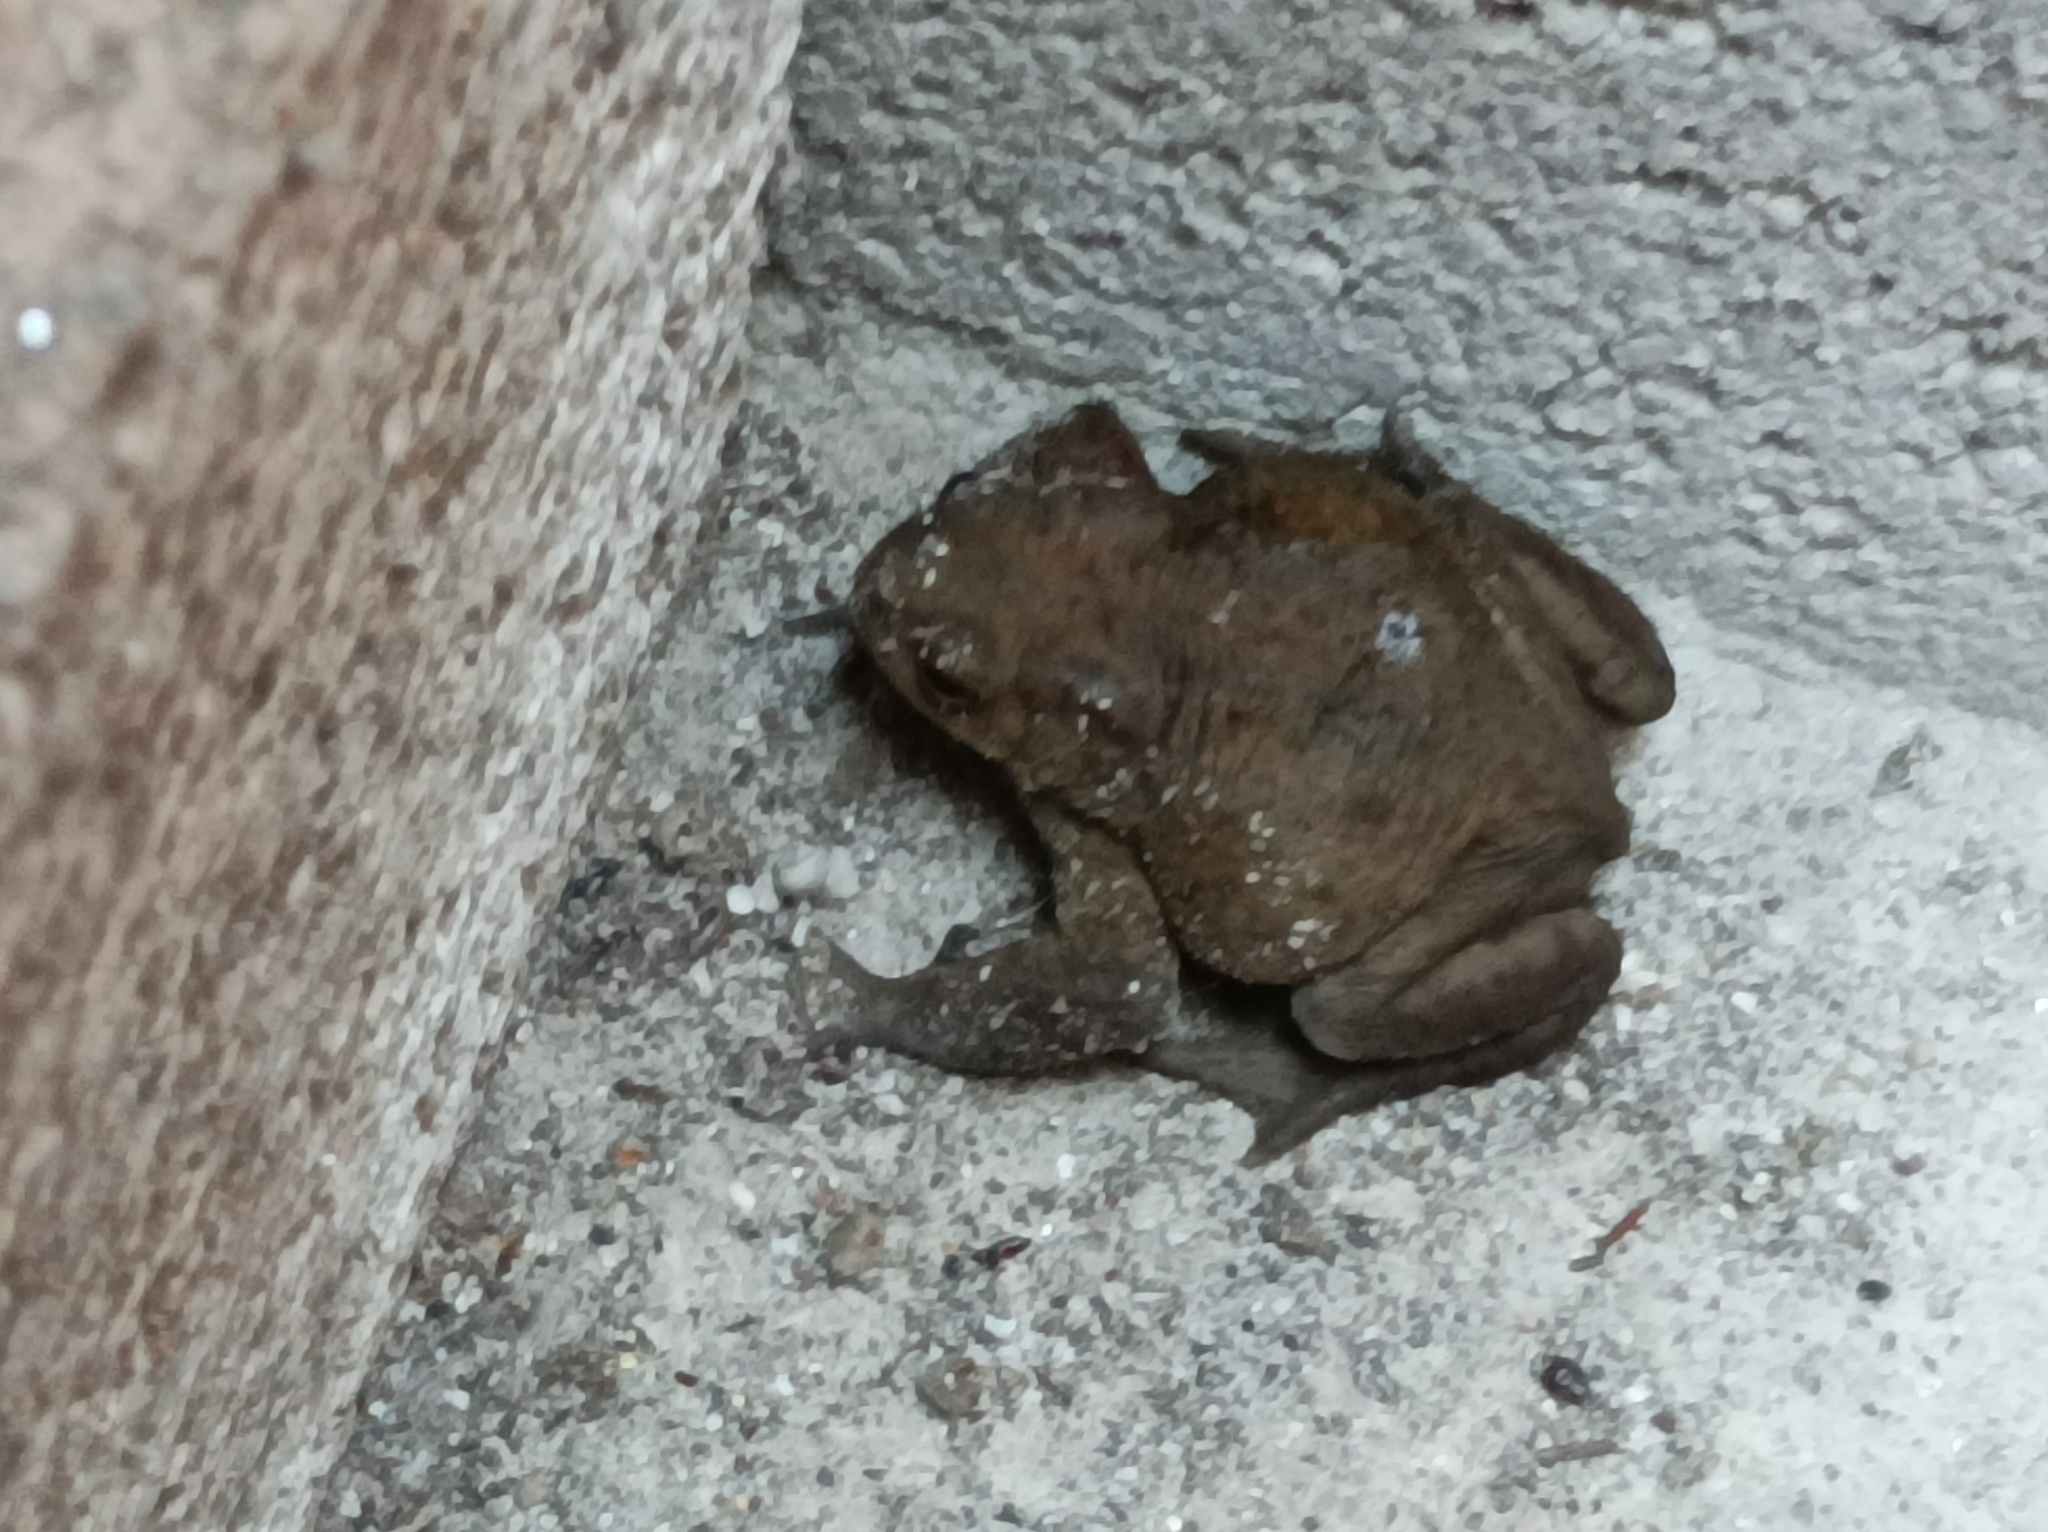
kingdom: Animalia
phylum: Chordata
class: Amphibia
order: Anura
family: Bufonidae
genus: Bufo
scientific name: Bufo bufo
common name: Common toad
